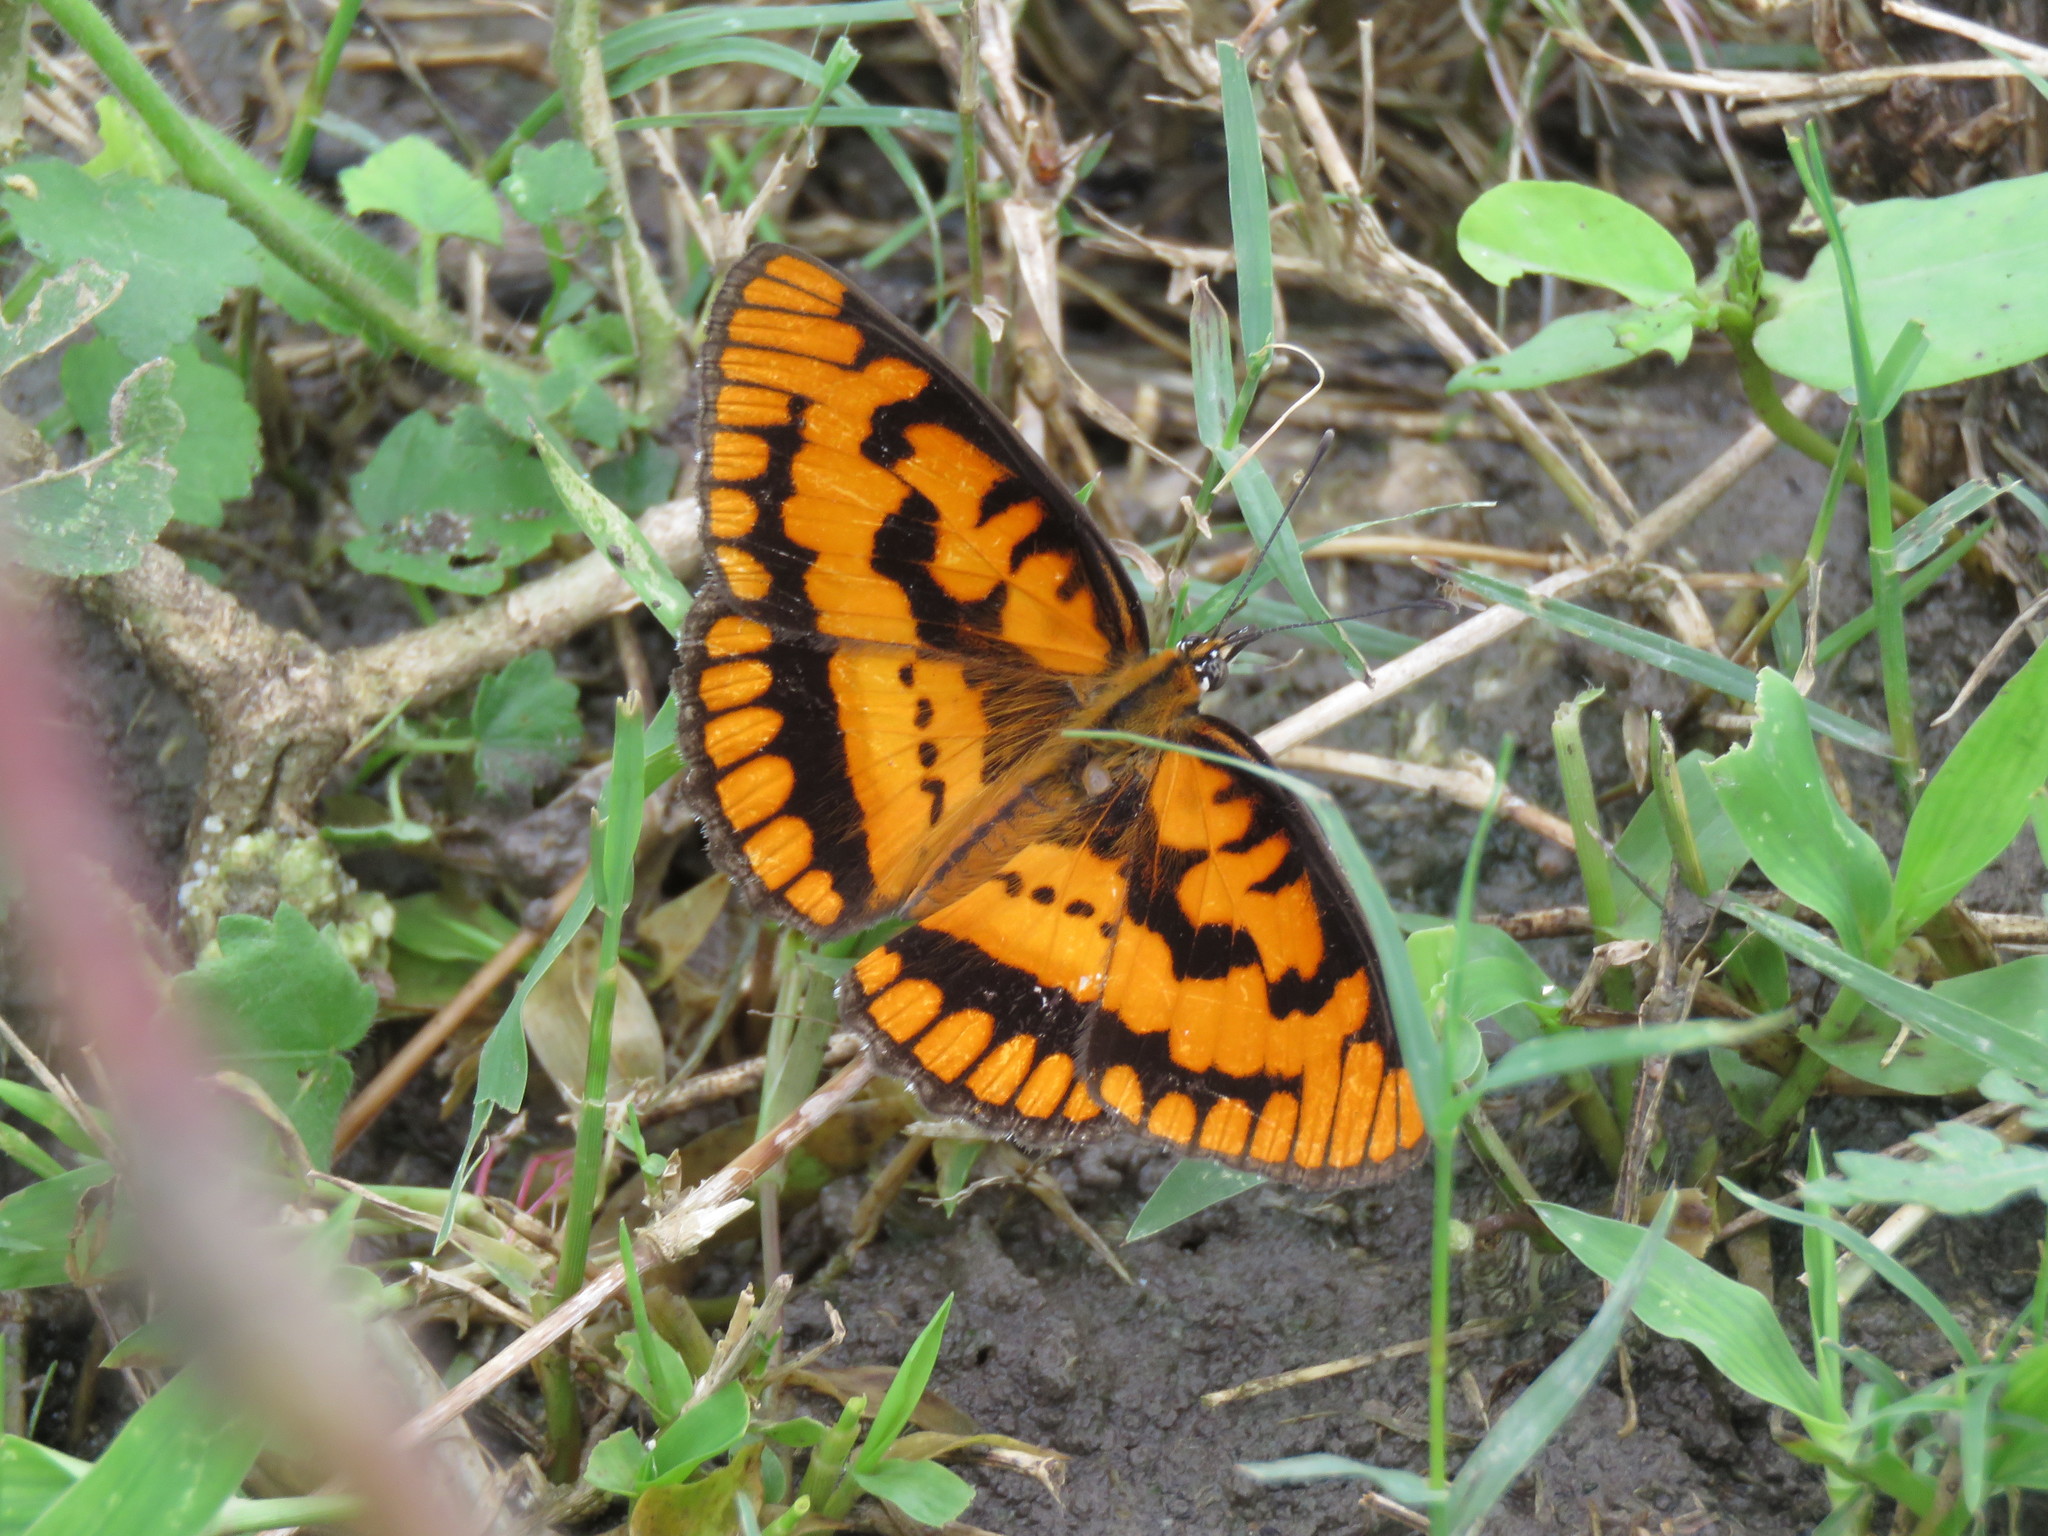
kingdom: Animalia
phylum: Arthropoda
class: Insecta
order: Lepidoptera
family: Nymphalidae
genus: Byblia
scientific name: Byblia ilithyia
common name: Spotted joker
